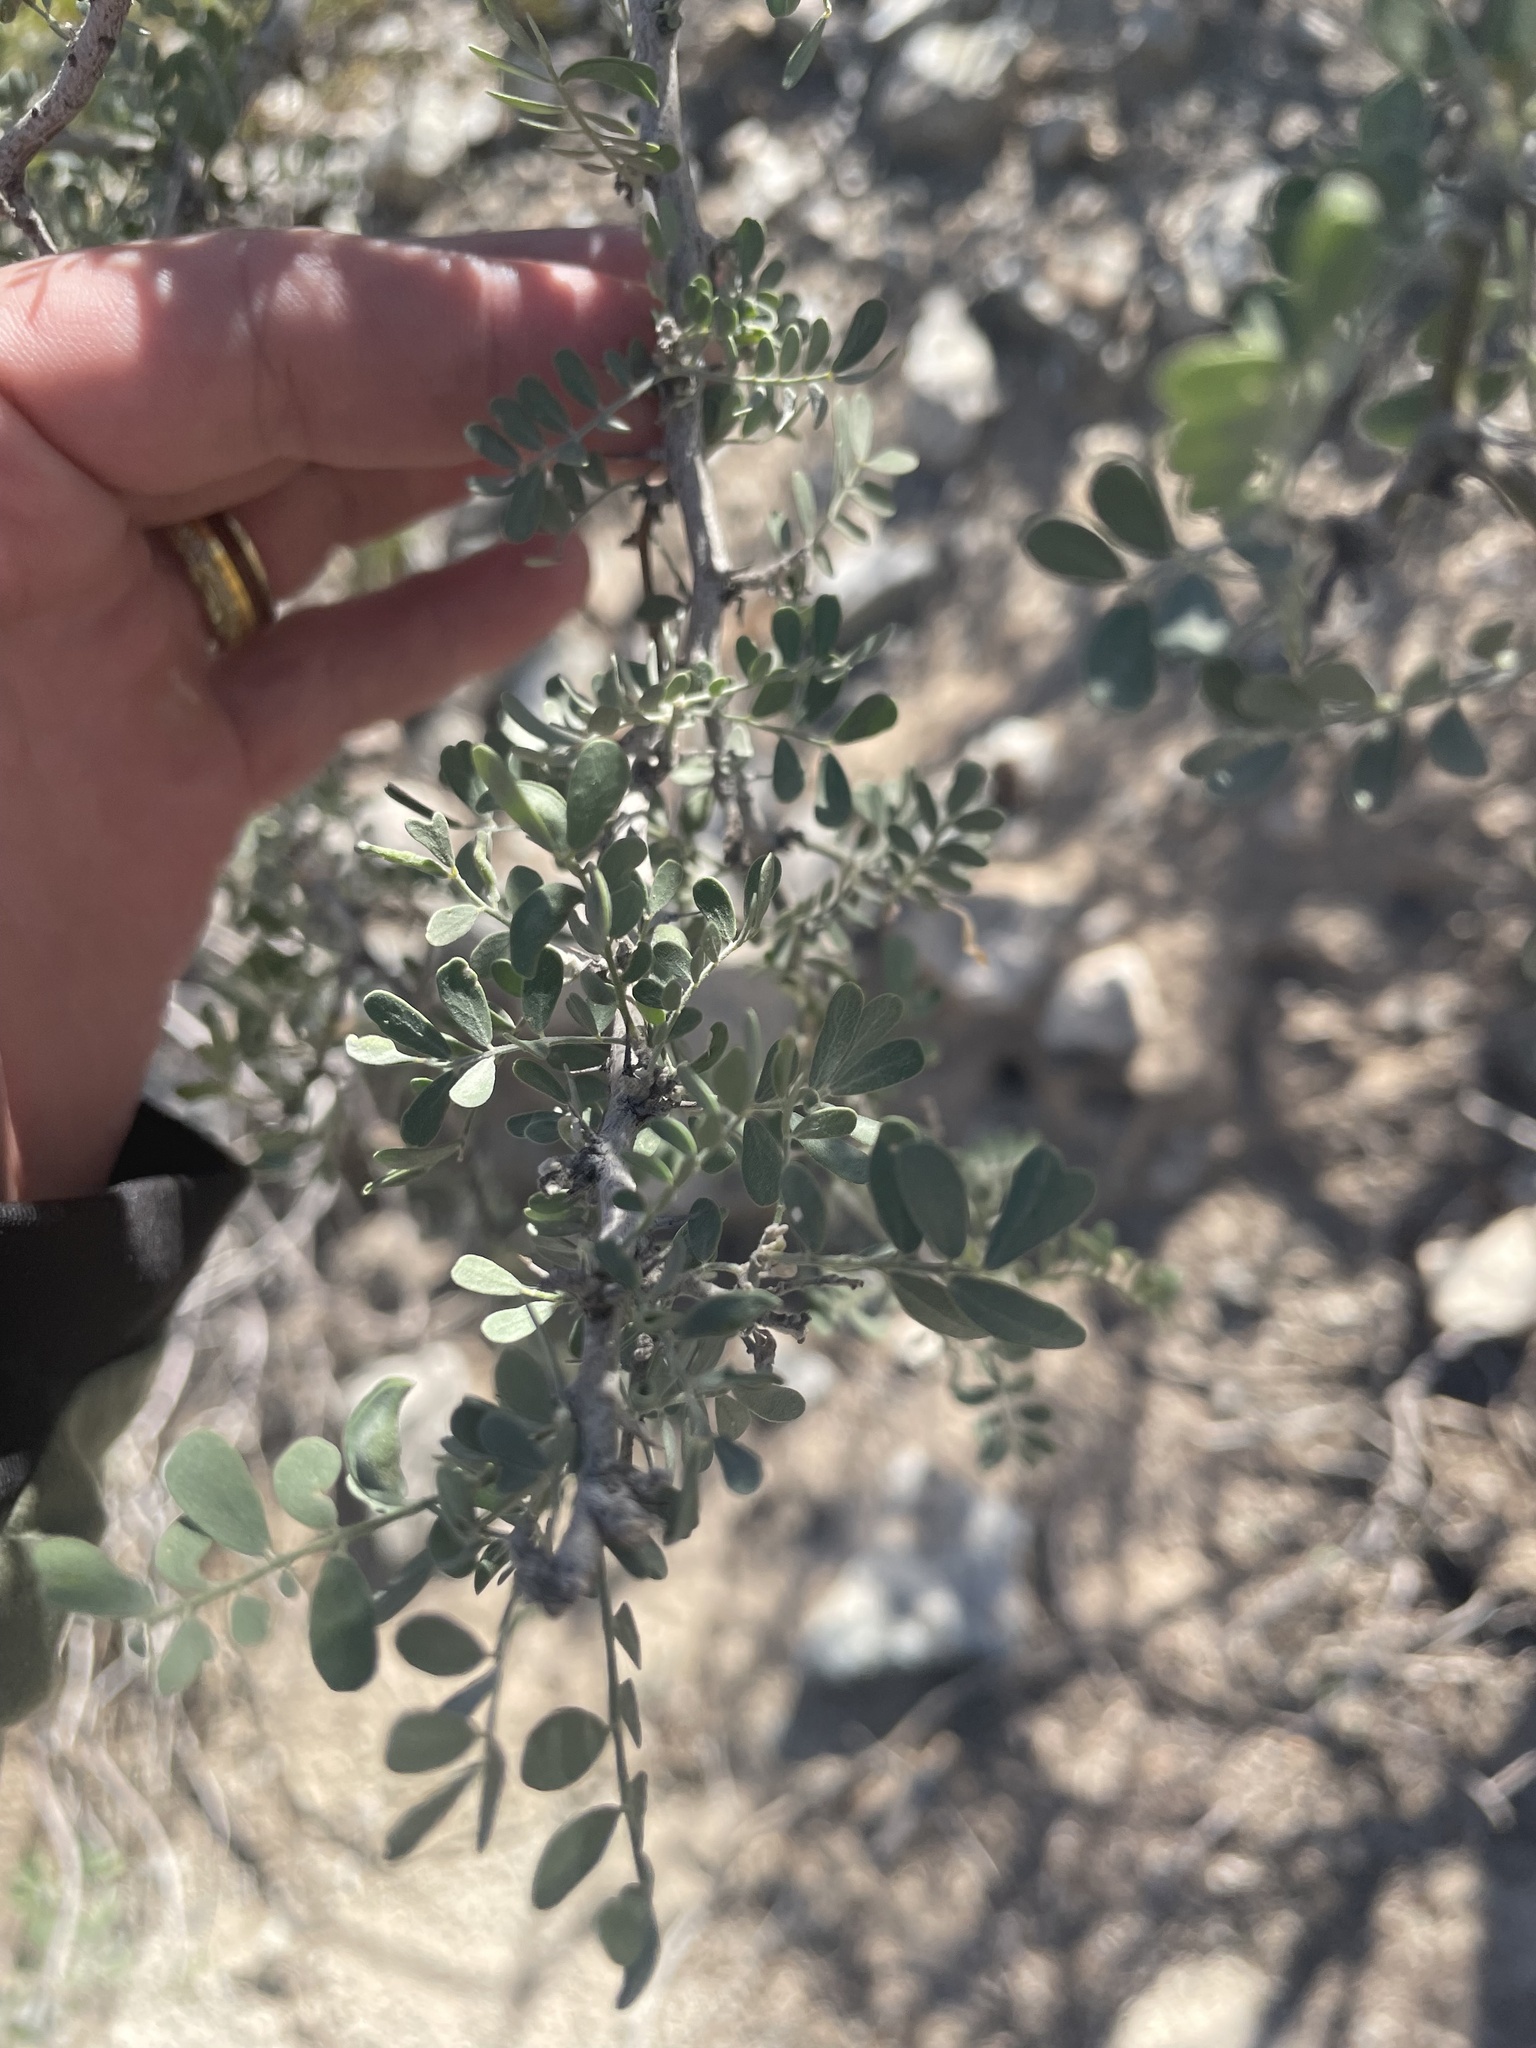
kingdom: Plantae
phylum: Tracheophyta
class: Magnoliopsida
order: Fabales
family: Fabaceae
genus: Olneya
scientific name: Olneya tesota
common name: Desert ironwood
